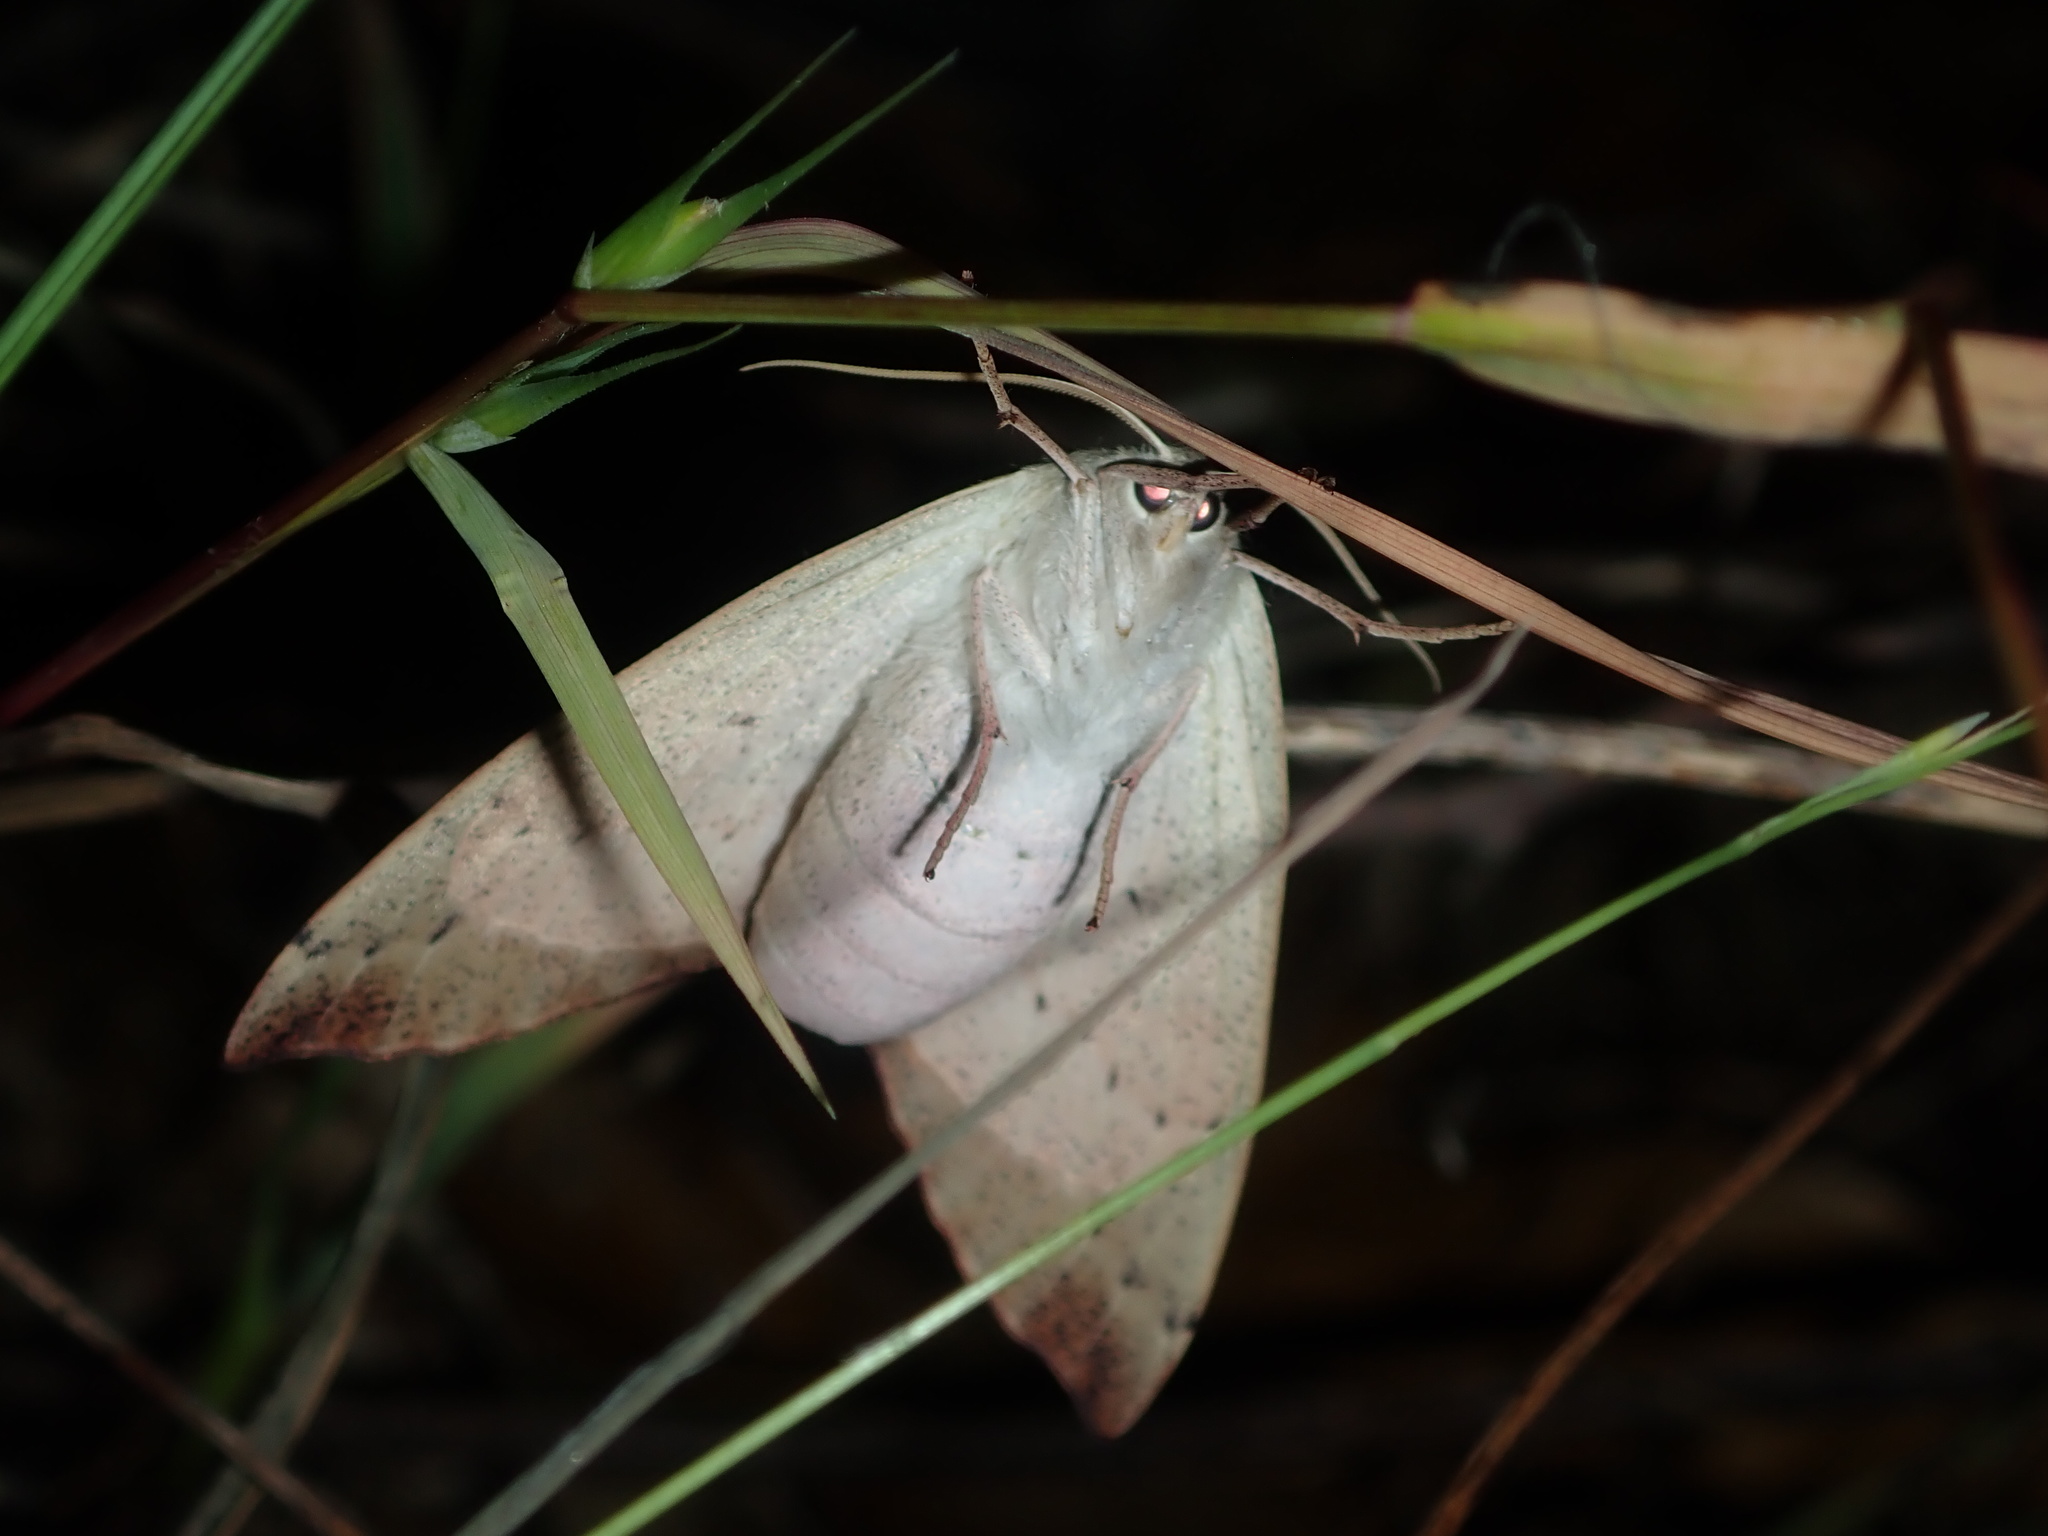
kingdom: Animalia
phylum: Arthropoda
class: Insecta
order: Lepidoptera
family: Geometridae
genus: Arhodia
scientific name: Arhodia lasiocamparia
